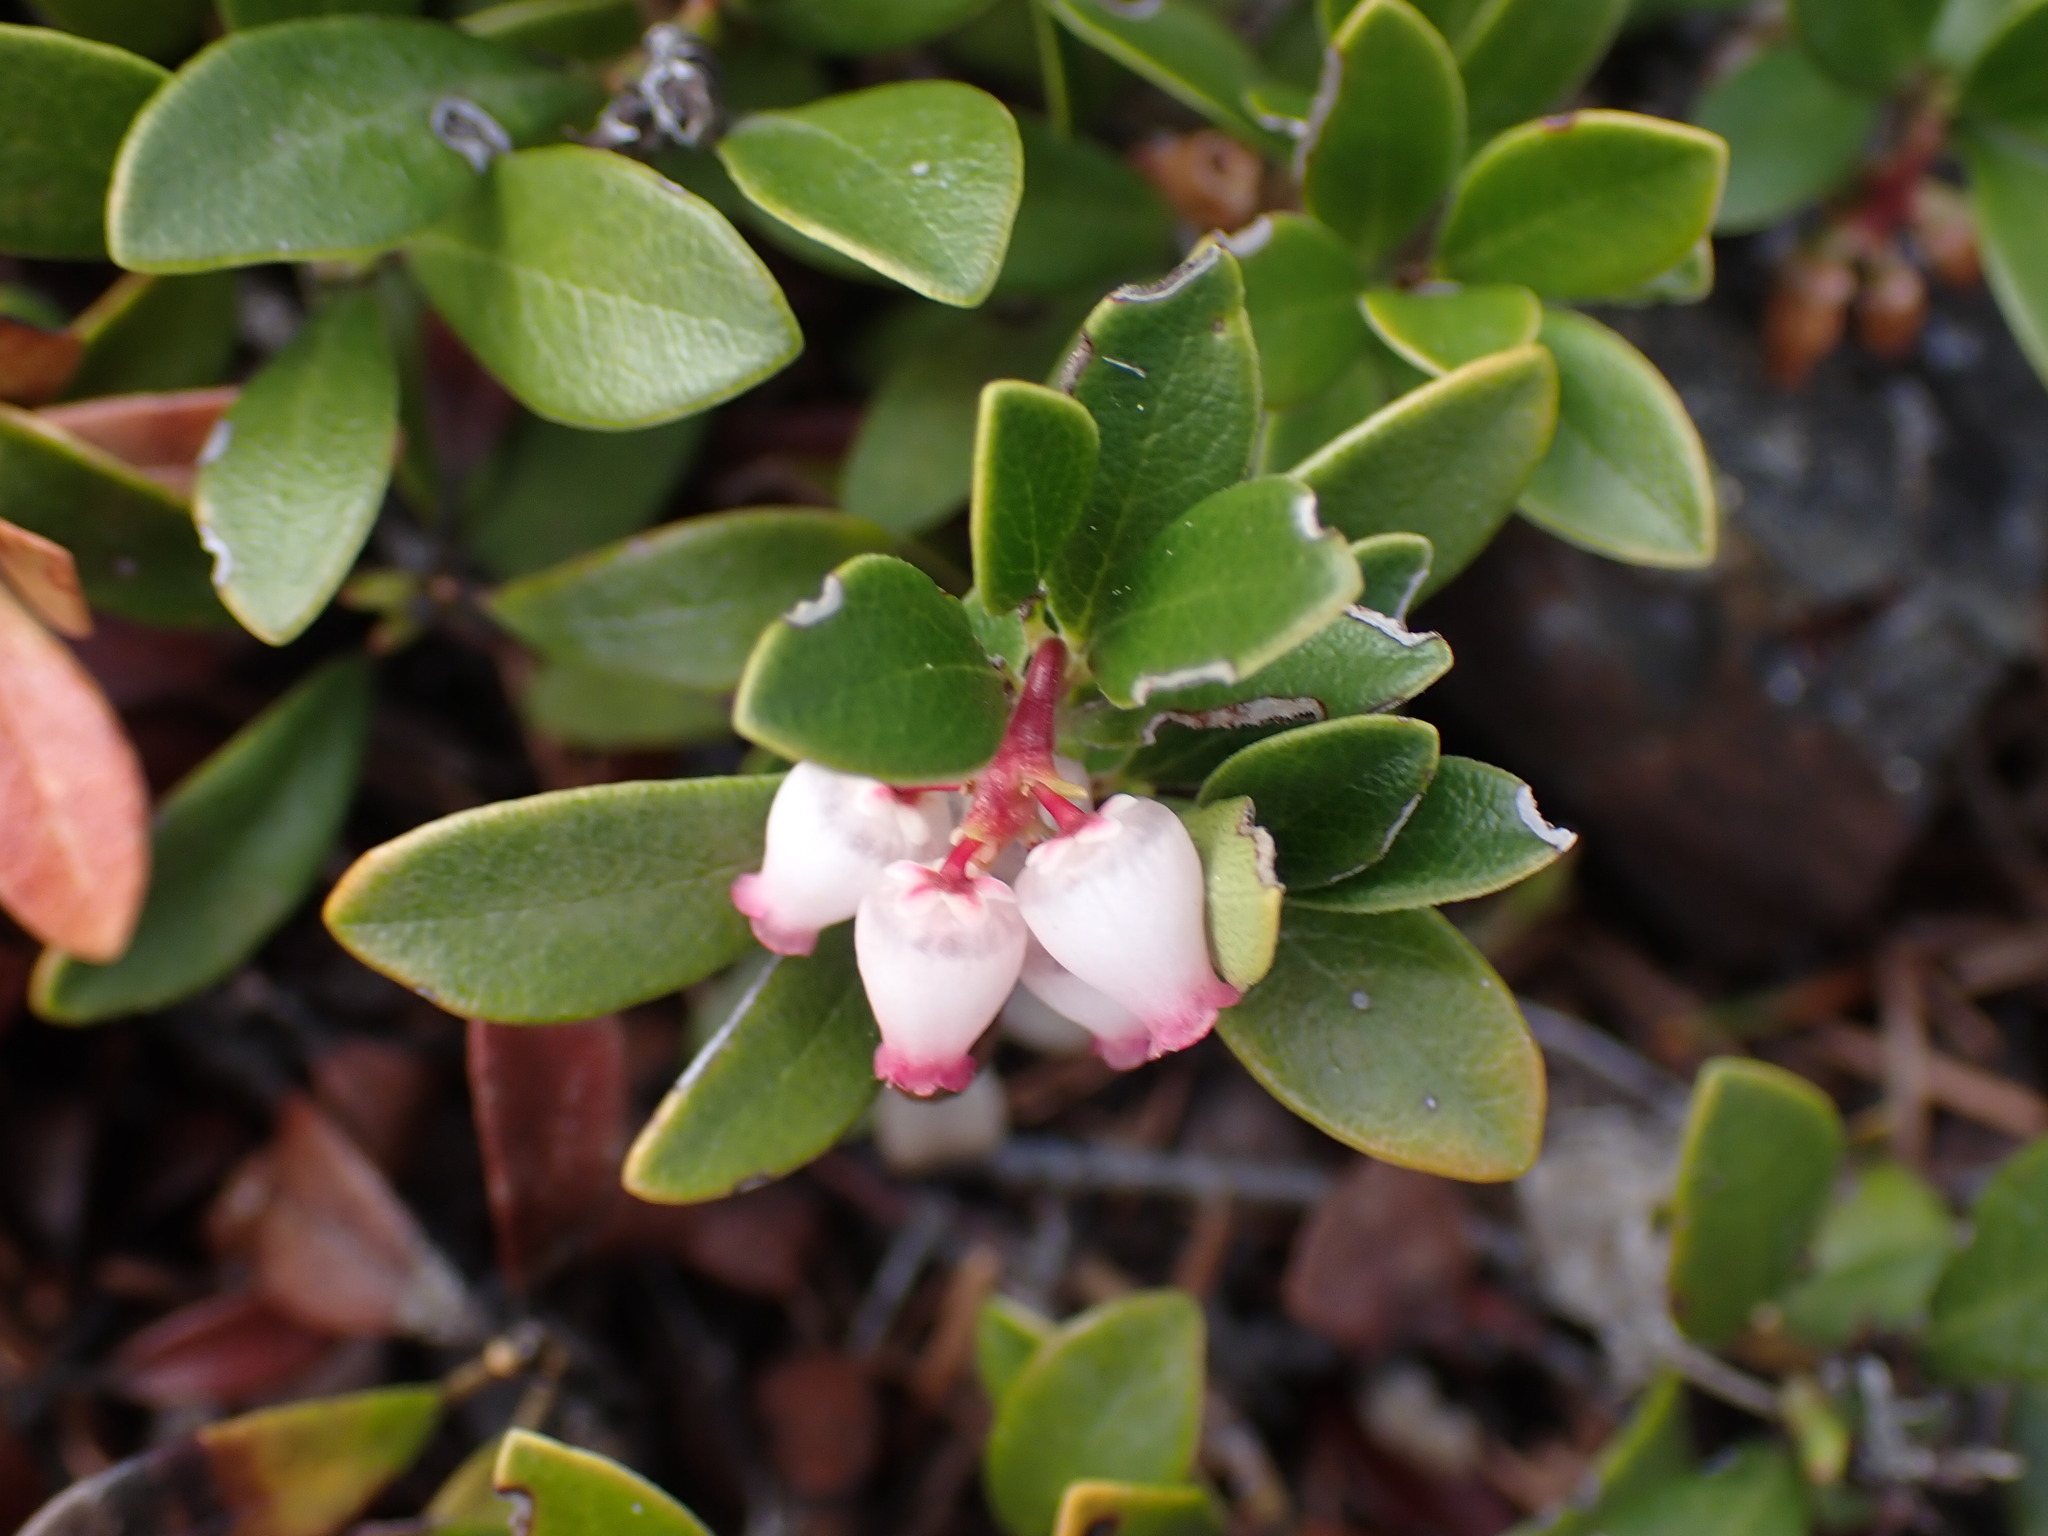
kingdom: Plantae
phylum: Tracheophyta
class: Magnoliopsida
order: Ericales
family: Ericaceae
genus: Arctostaphylos
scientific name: Arctostaphylos uva-ursi
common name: Bearberry
